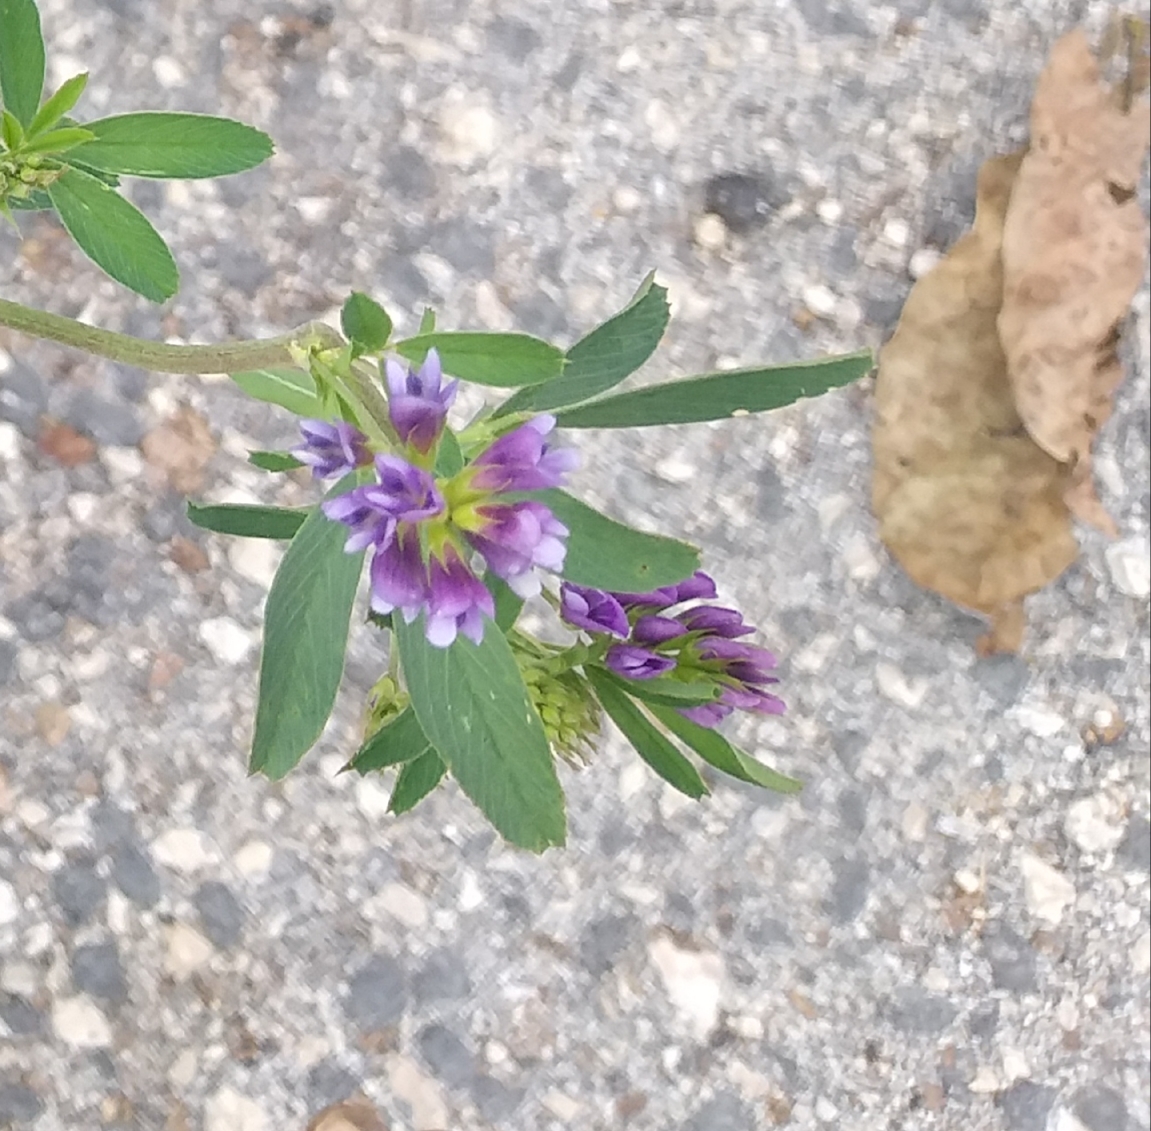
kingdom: Plantae
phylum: Tracheophyta
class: Magnoliopsida
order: Fabales
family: Fabaceae
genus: Medicago
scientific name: Medicago sativa
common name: Alfalfa
